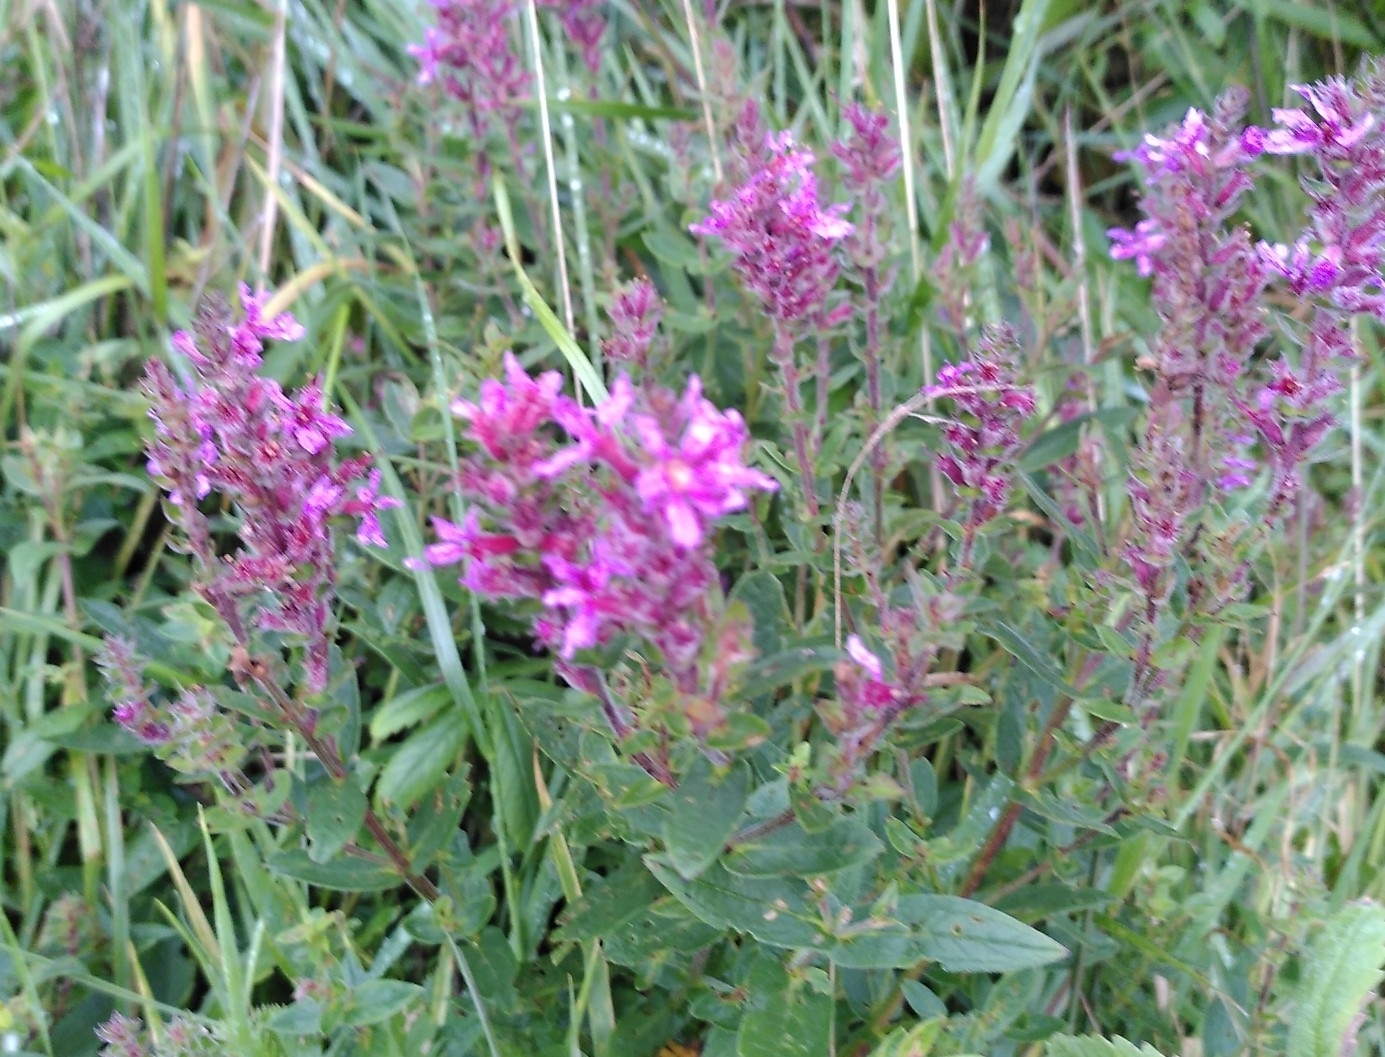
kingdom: Plantae
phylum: Tracheophyta
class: Magnoliopsida
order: Myrtales
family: Lythraceae
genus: Lythrum
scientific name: Lythrum salicaria
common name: Purple loosestrife
